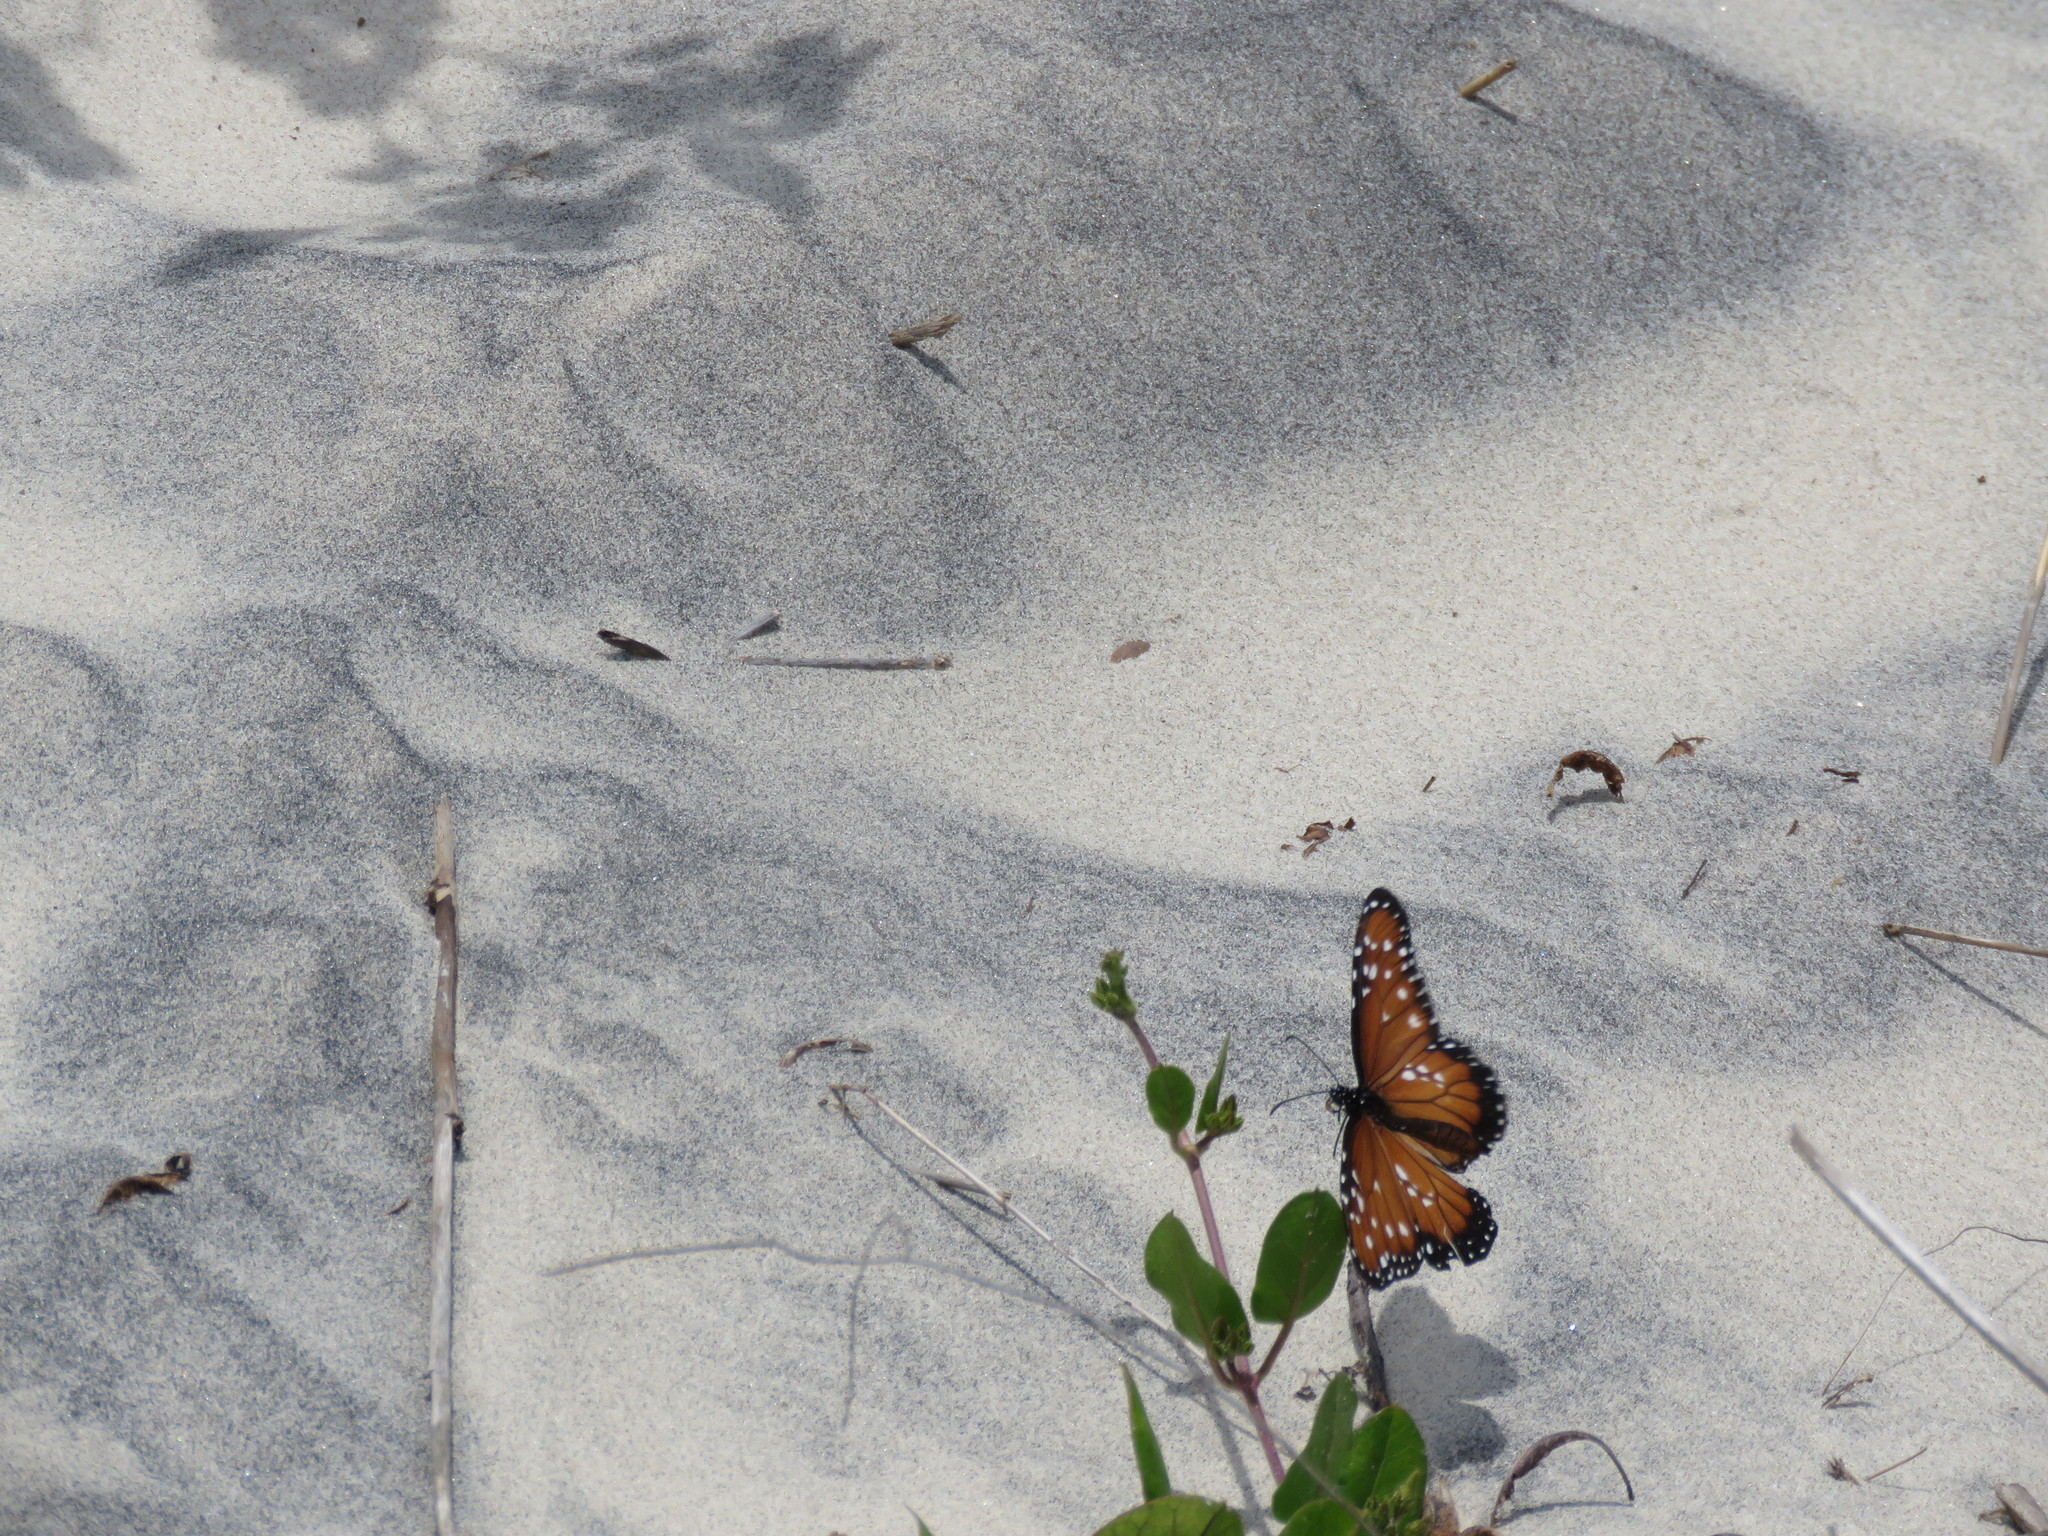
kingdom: Animalia
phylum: Arthropoda
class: Insecta
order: Lepidoptera
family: Nymphalidae
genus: Danaus
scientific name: Danaus gilippus
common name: Queen
